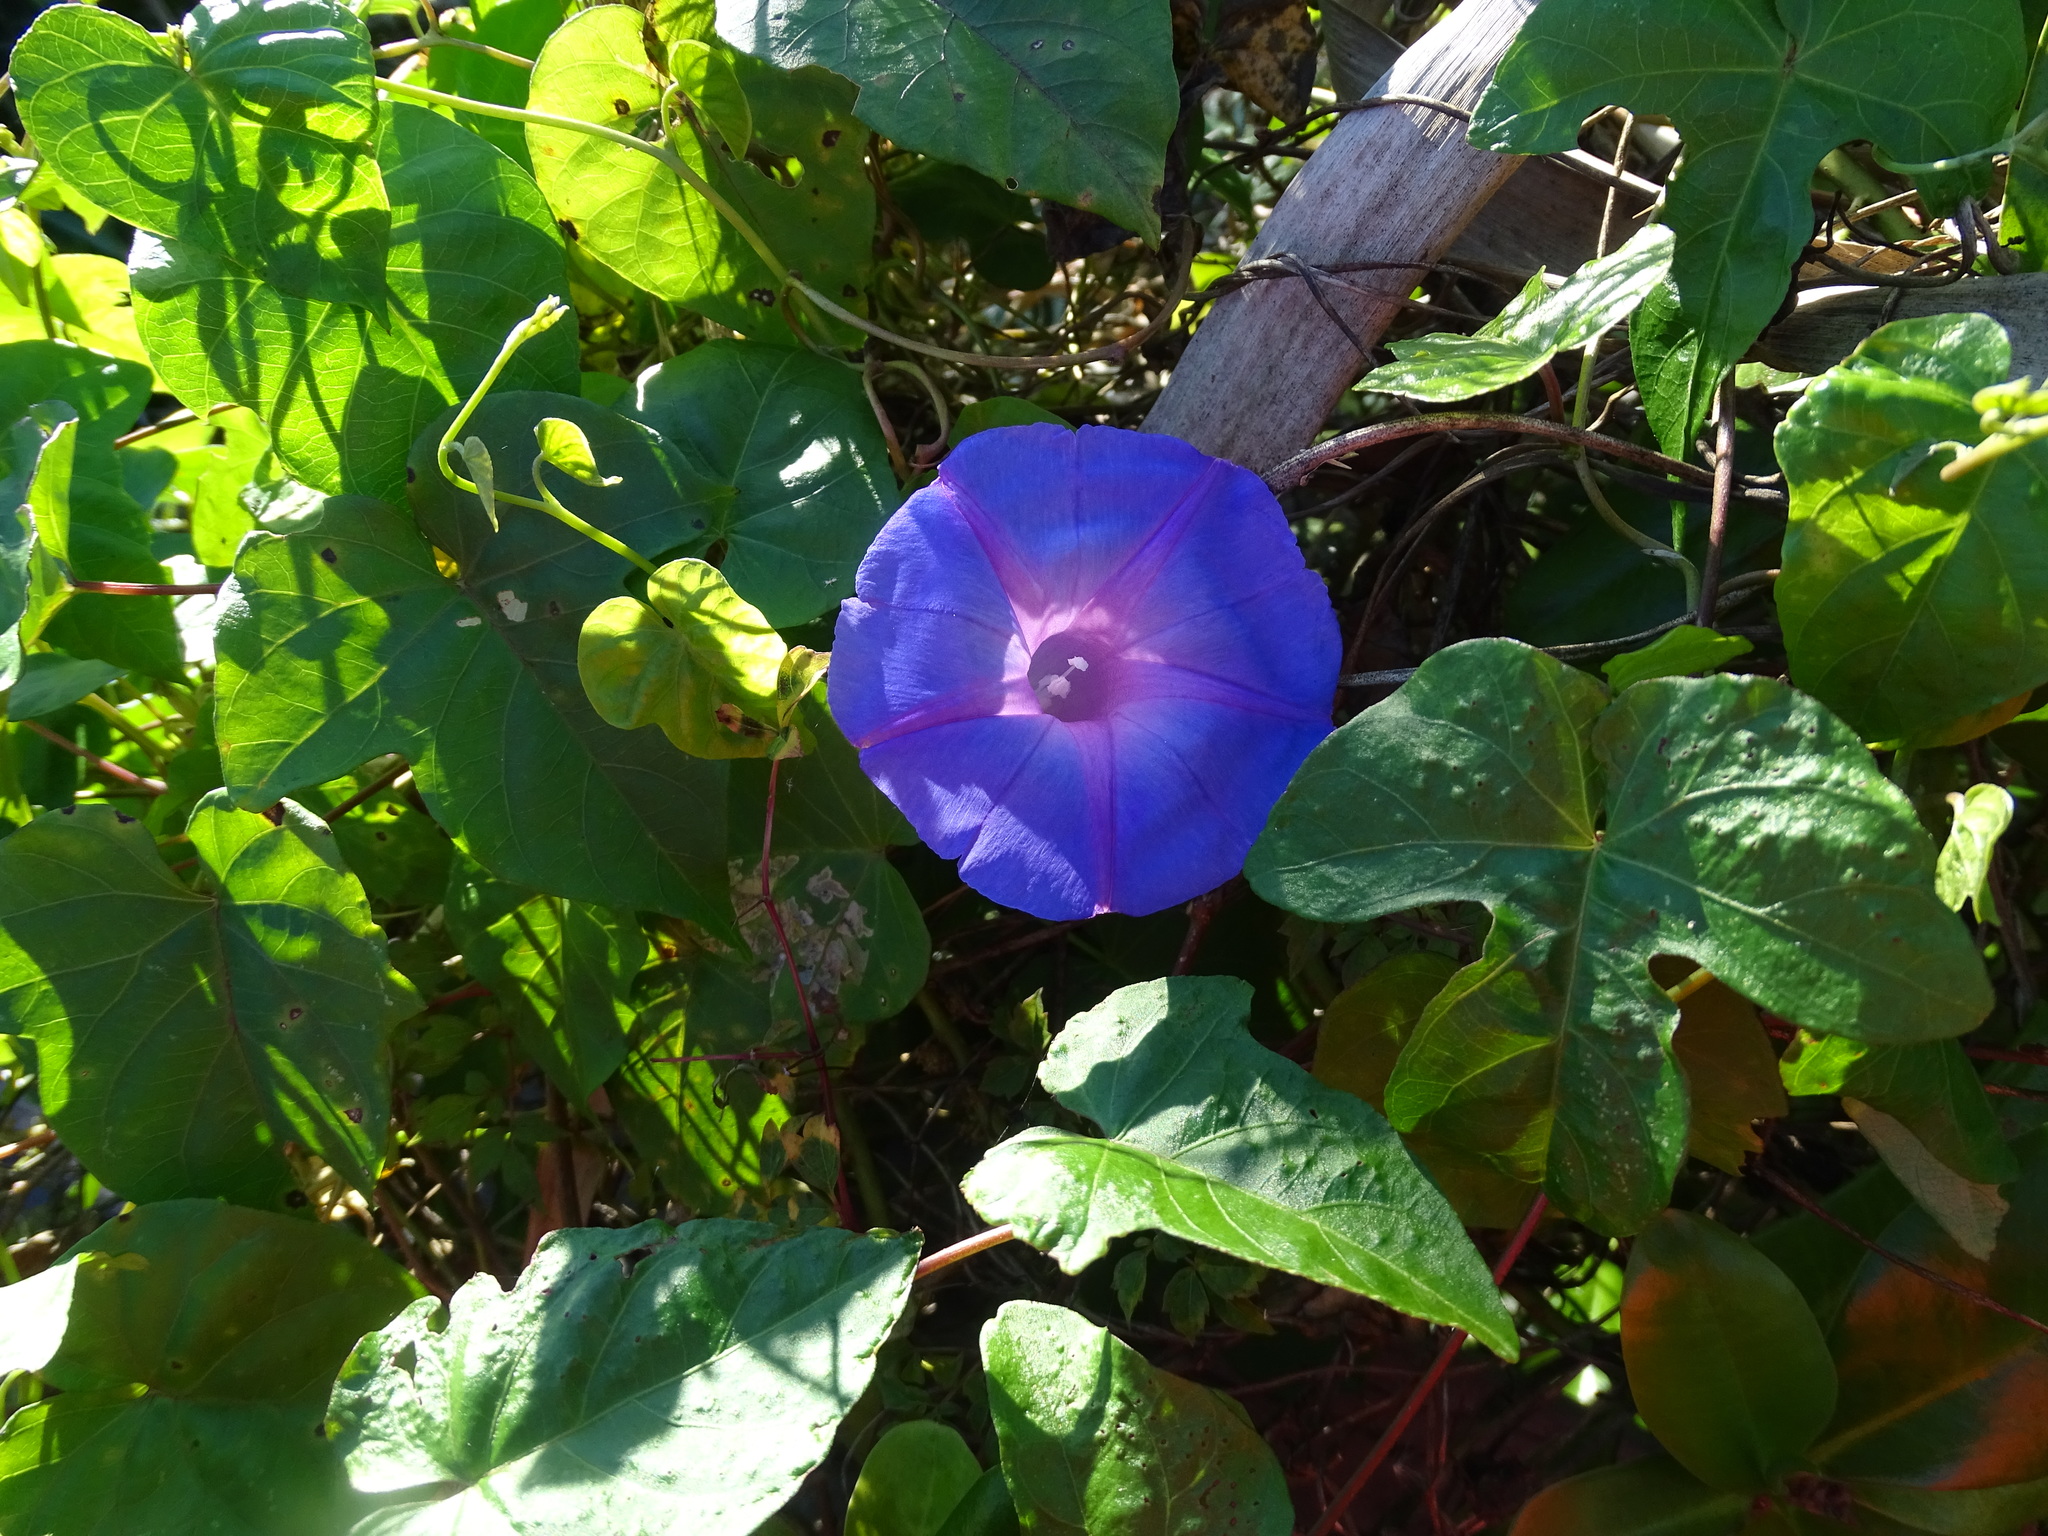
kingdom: Plantae
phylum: Tracheophyta
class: Magnoliopsida
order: Solanales
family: Convolvulaceae
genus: Ipomoea
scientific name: Ipomoea indica
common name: Blue dawnflower
